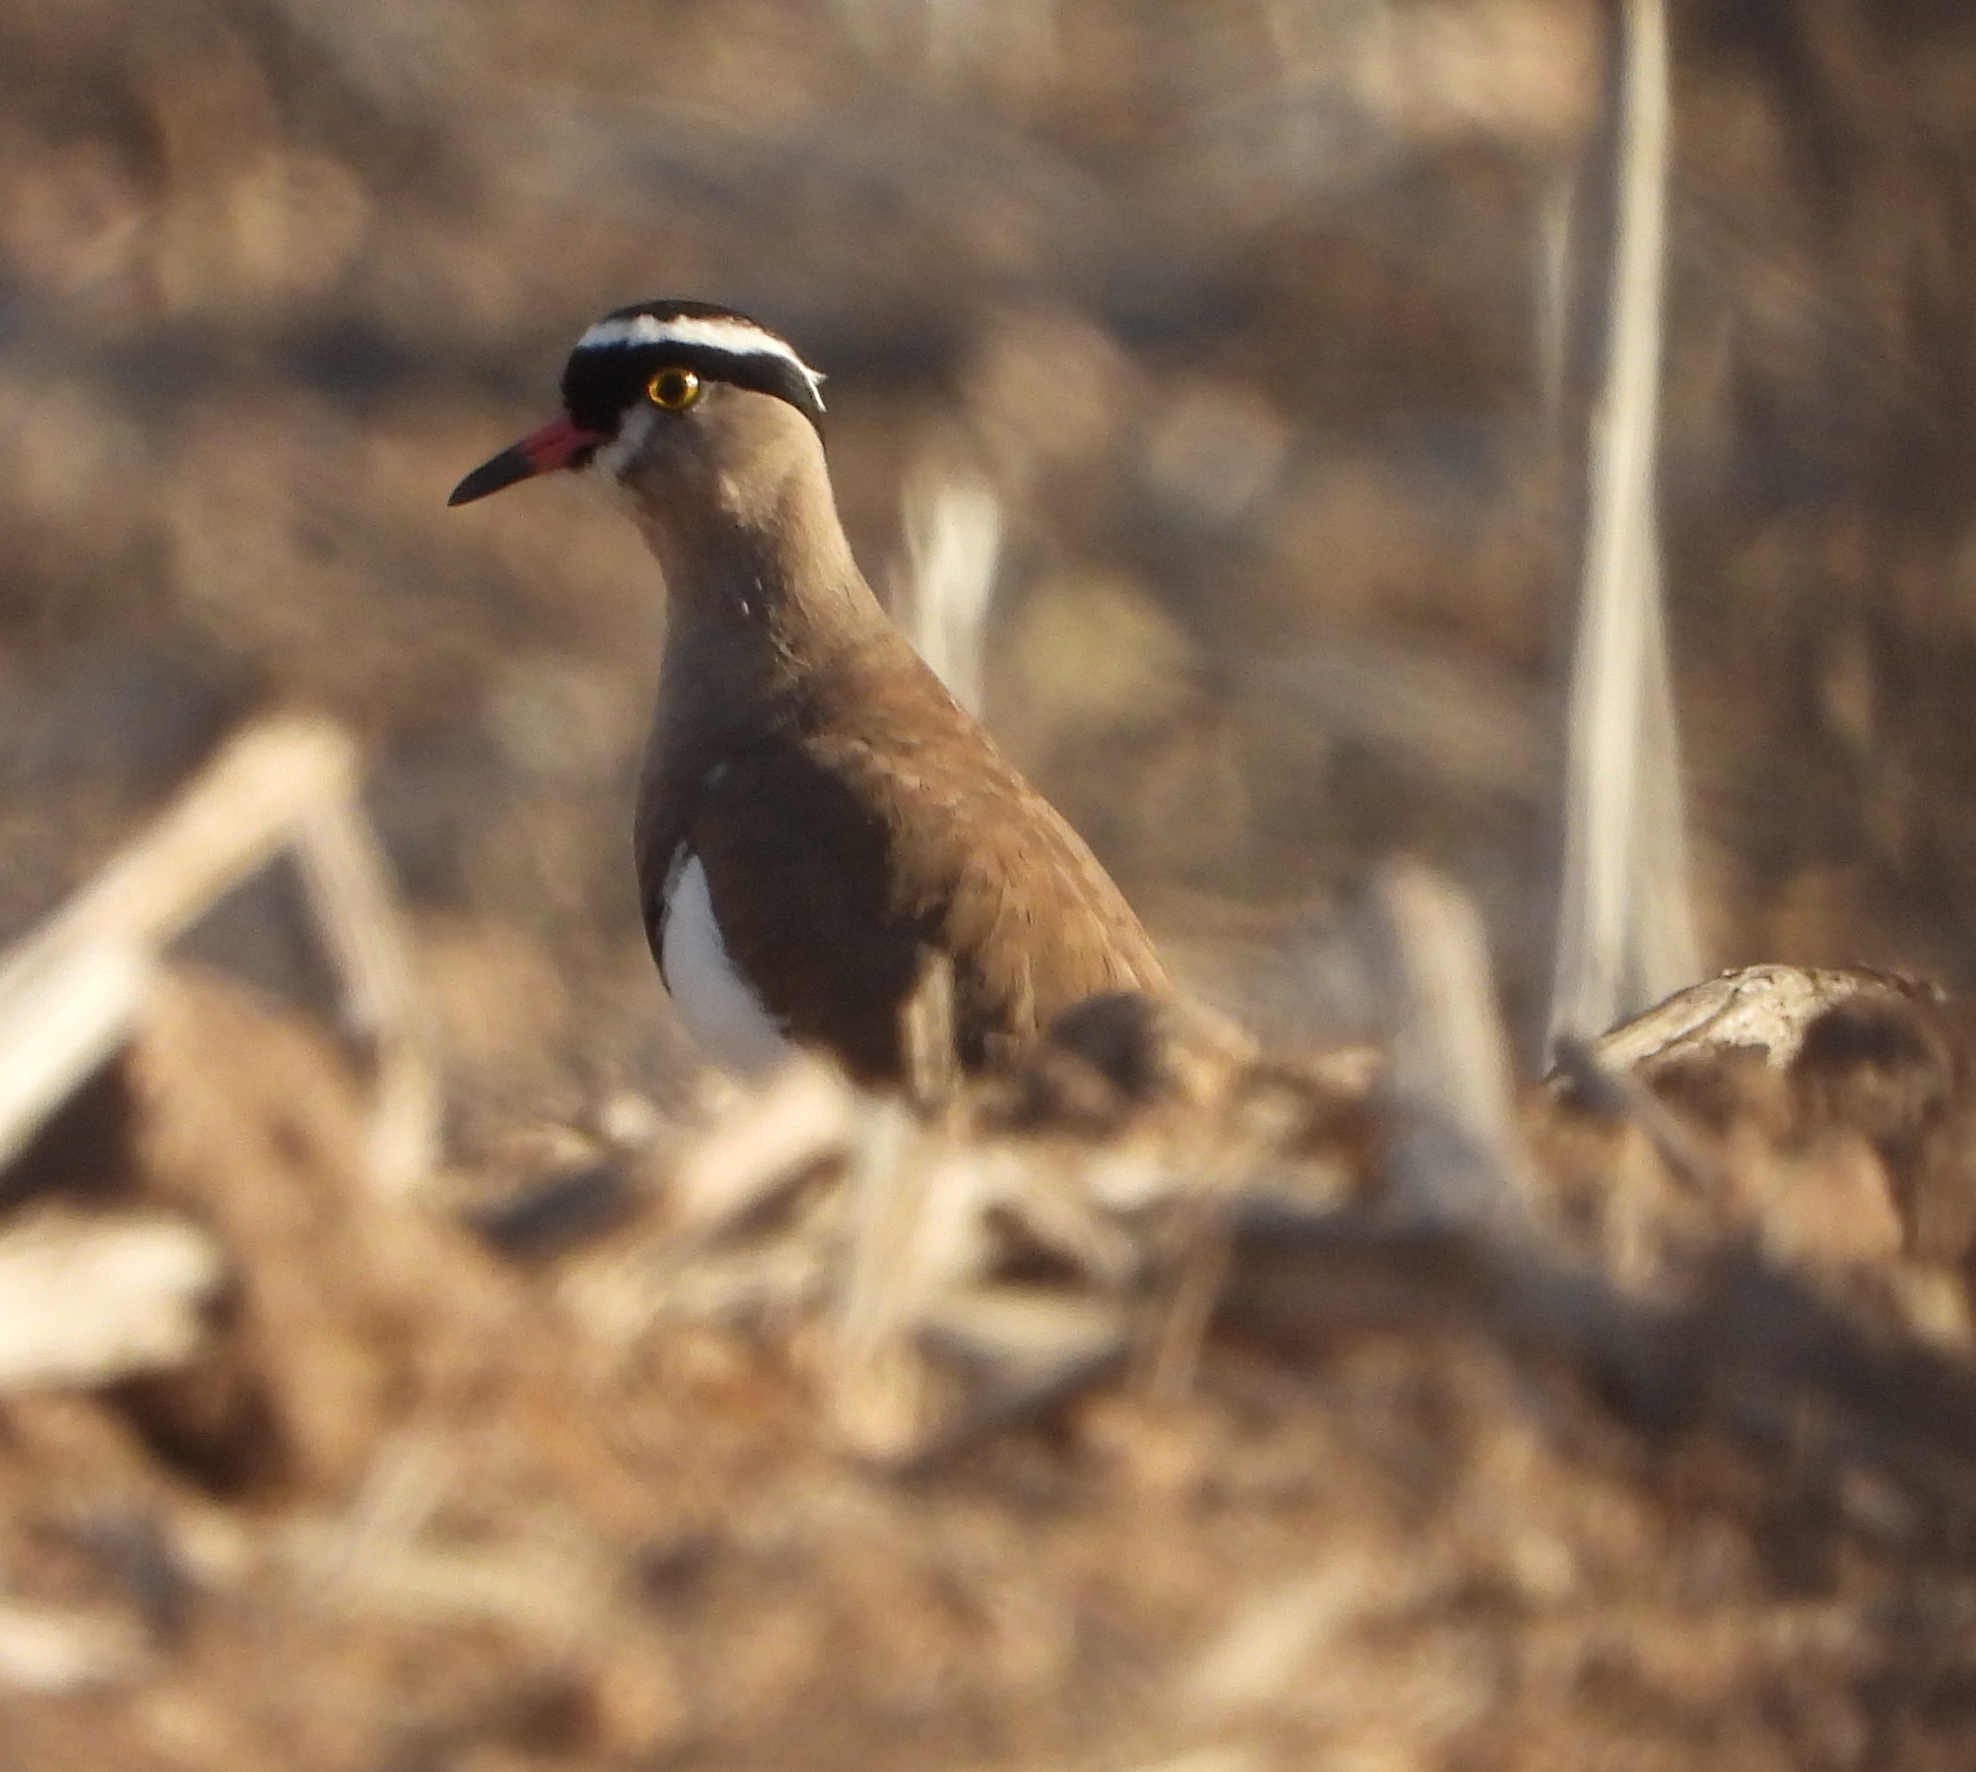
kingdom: Animalia
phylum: Chordata
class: Aves
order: Charadriiformes
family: Charadriidae
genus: Vanellus
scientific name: Vanellus coronatus
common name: Crowned lapwing
